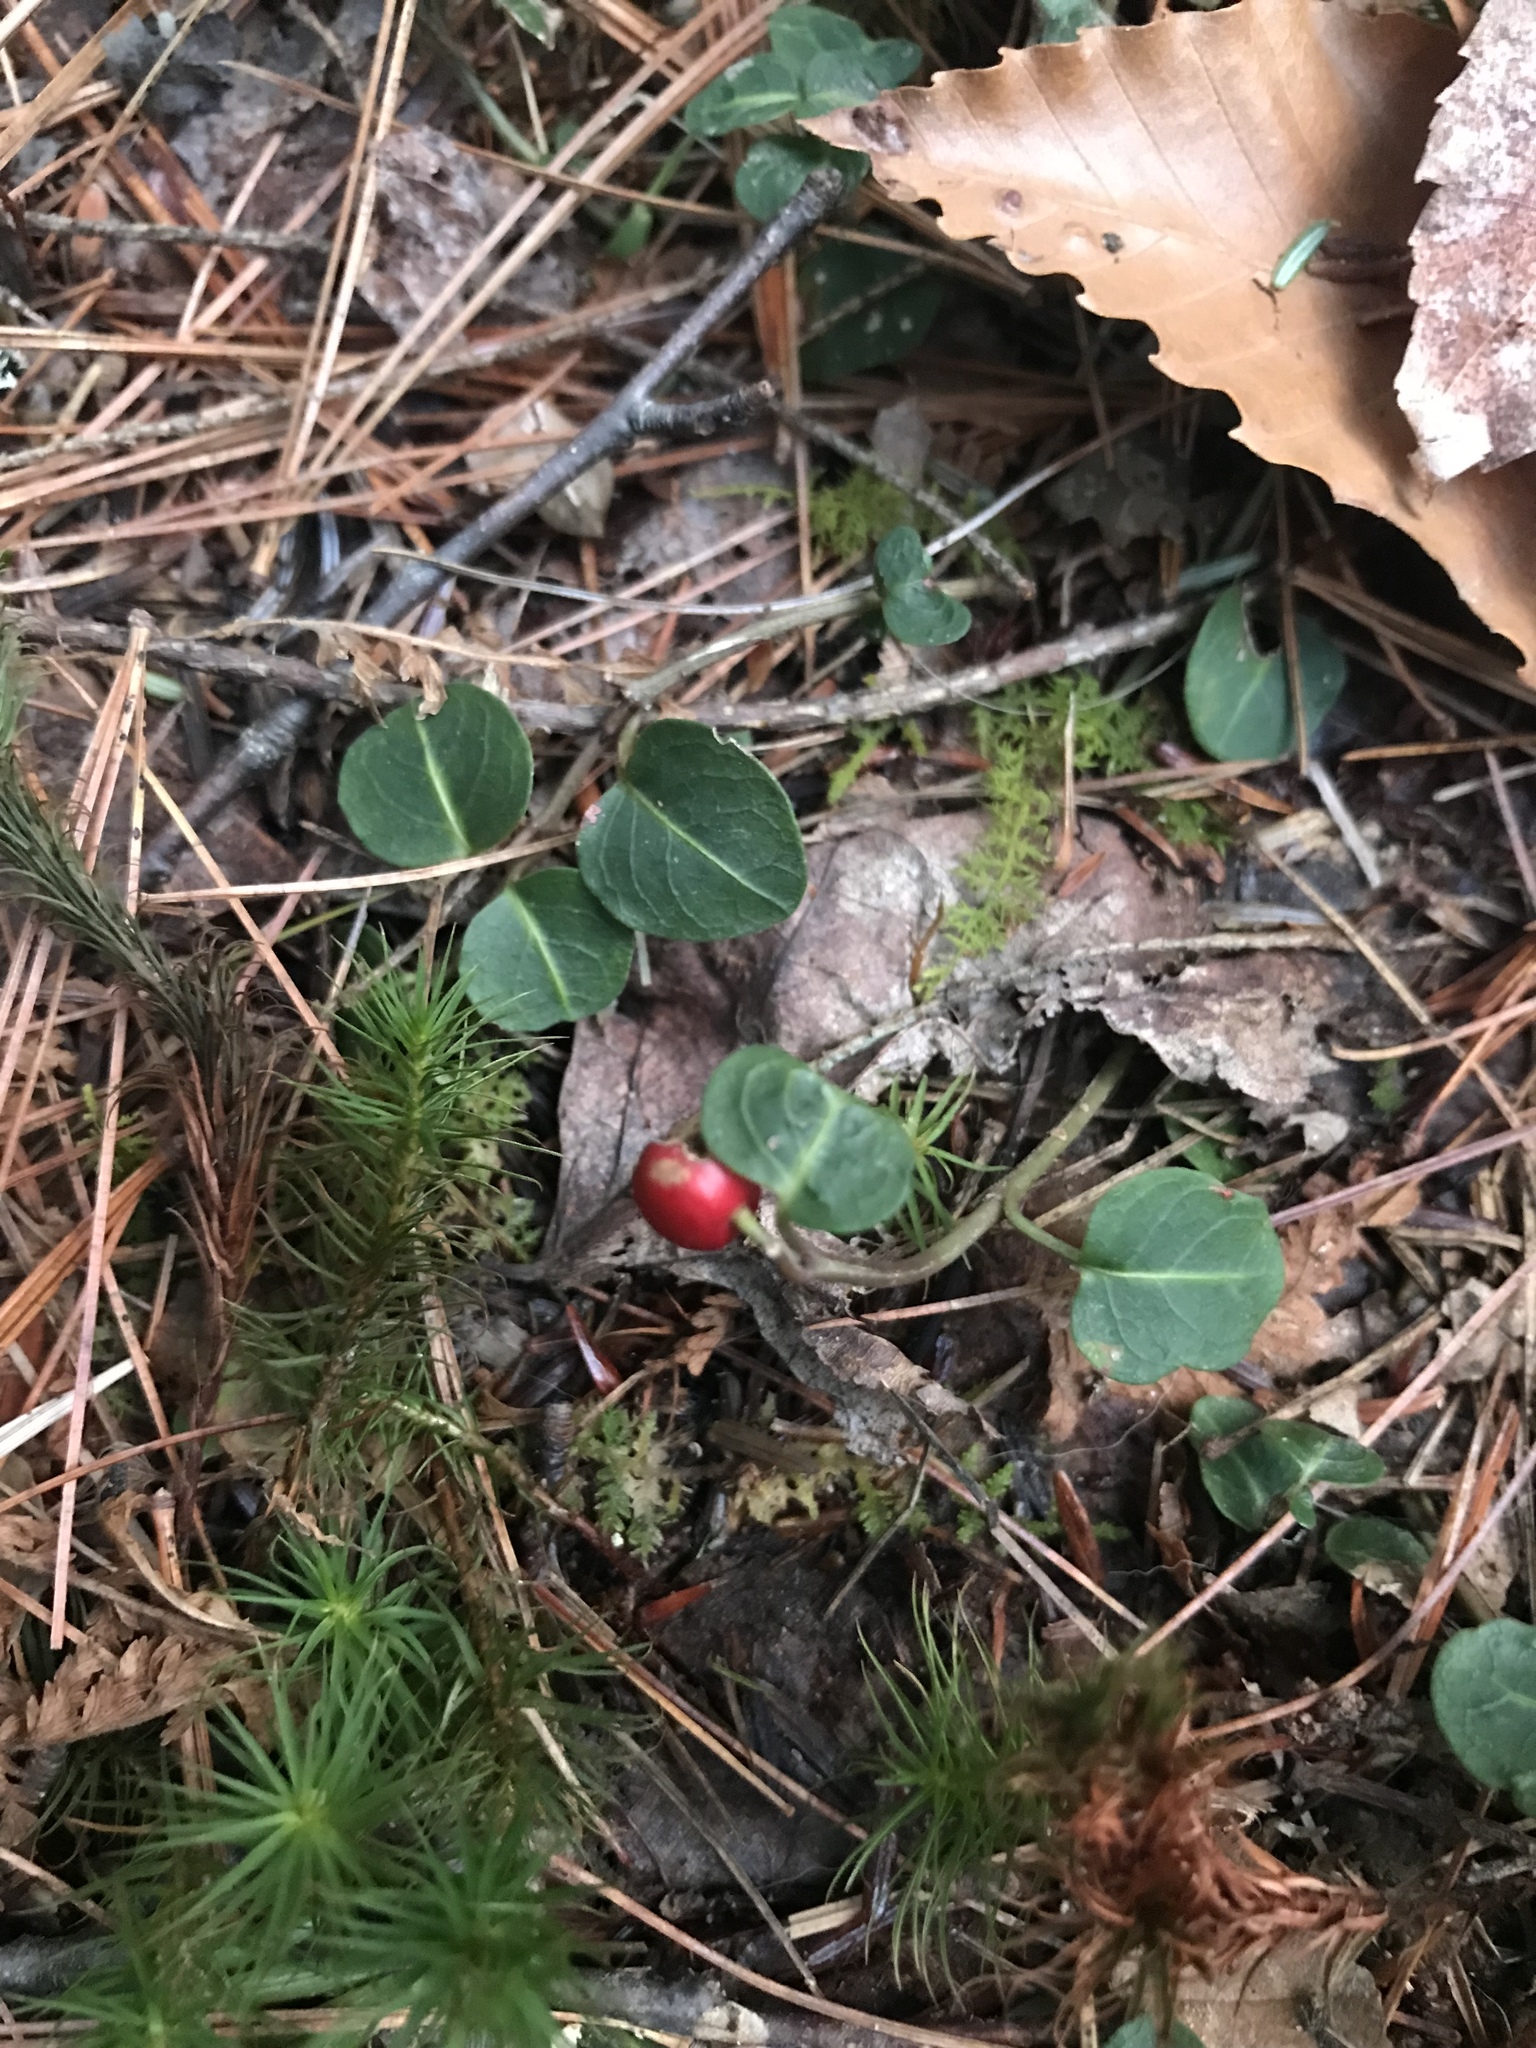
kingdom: Plantae
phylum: Tracheophyta
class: Magnoliopsida
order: Gentianales
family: Rubiaceae
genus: Mitchella
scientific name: Mitchella repens
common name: Partridge-berry
